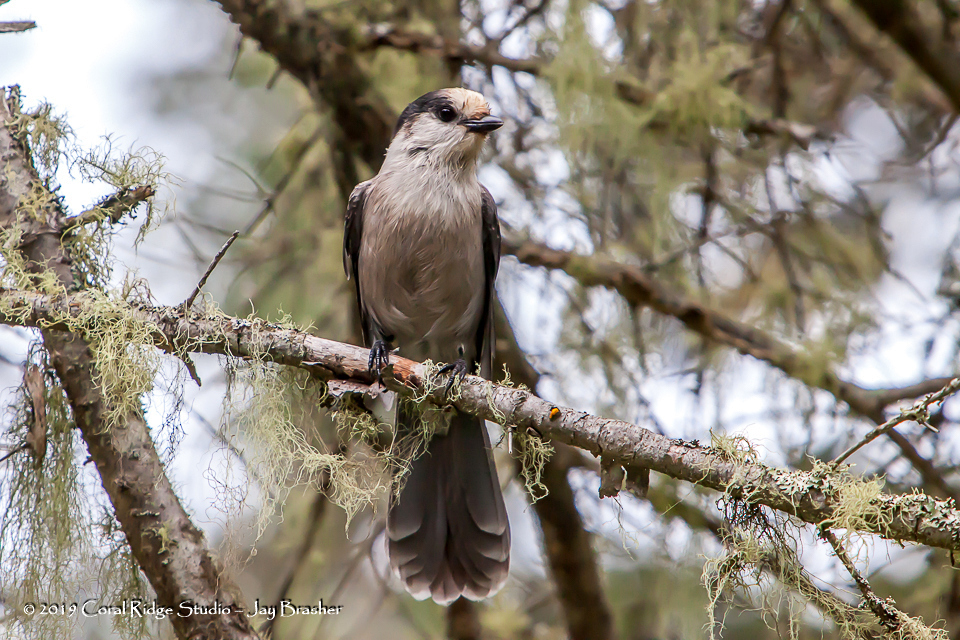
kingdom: Animalia
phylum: Chordata
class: Aves
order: Passeriformes
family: Corvidae
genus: Perisoreus
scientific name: Perisoreus canadensis
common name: Gray jay
